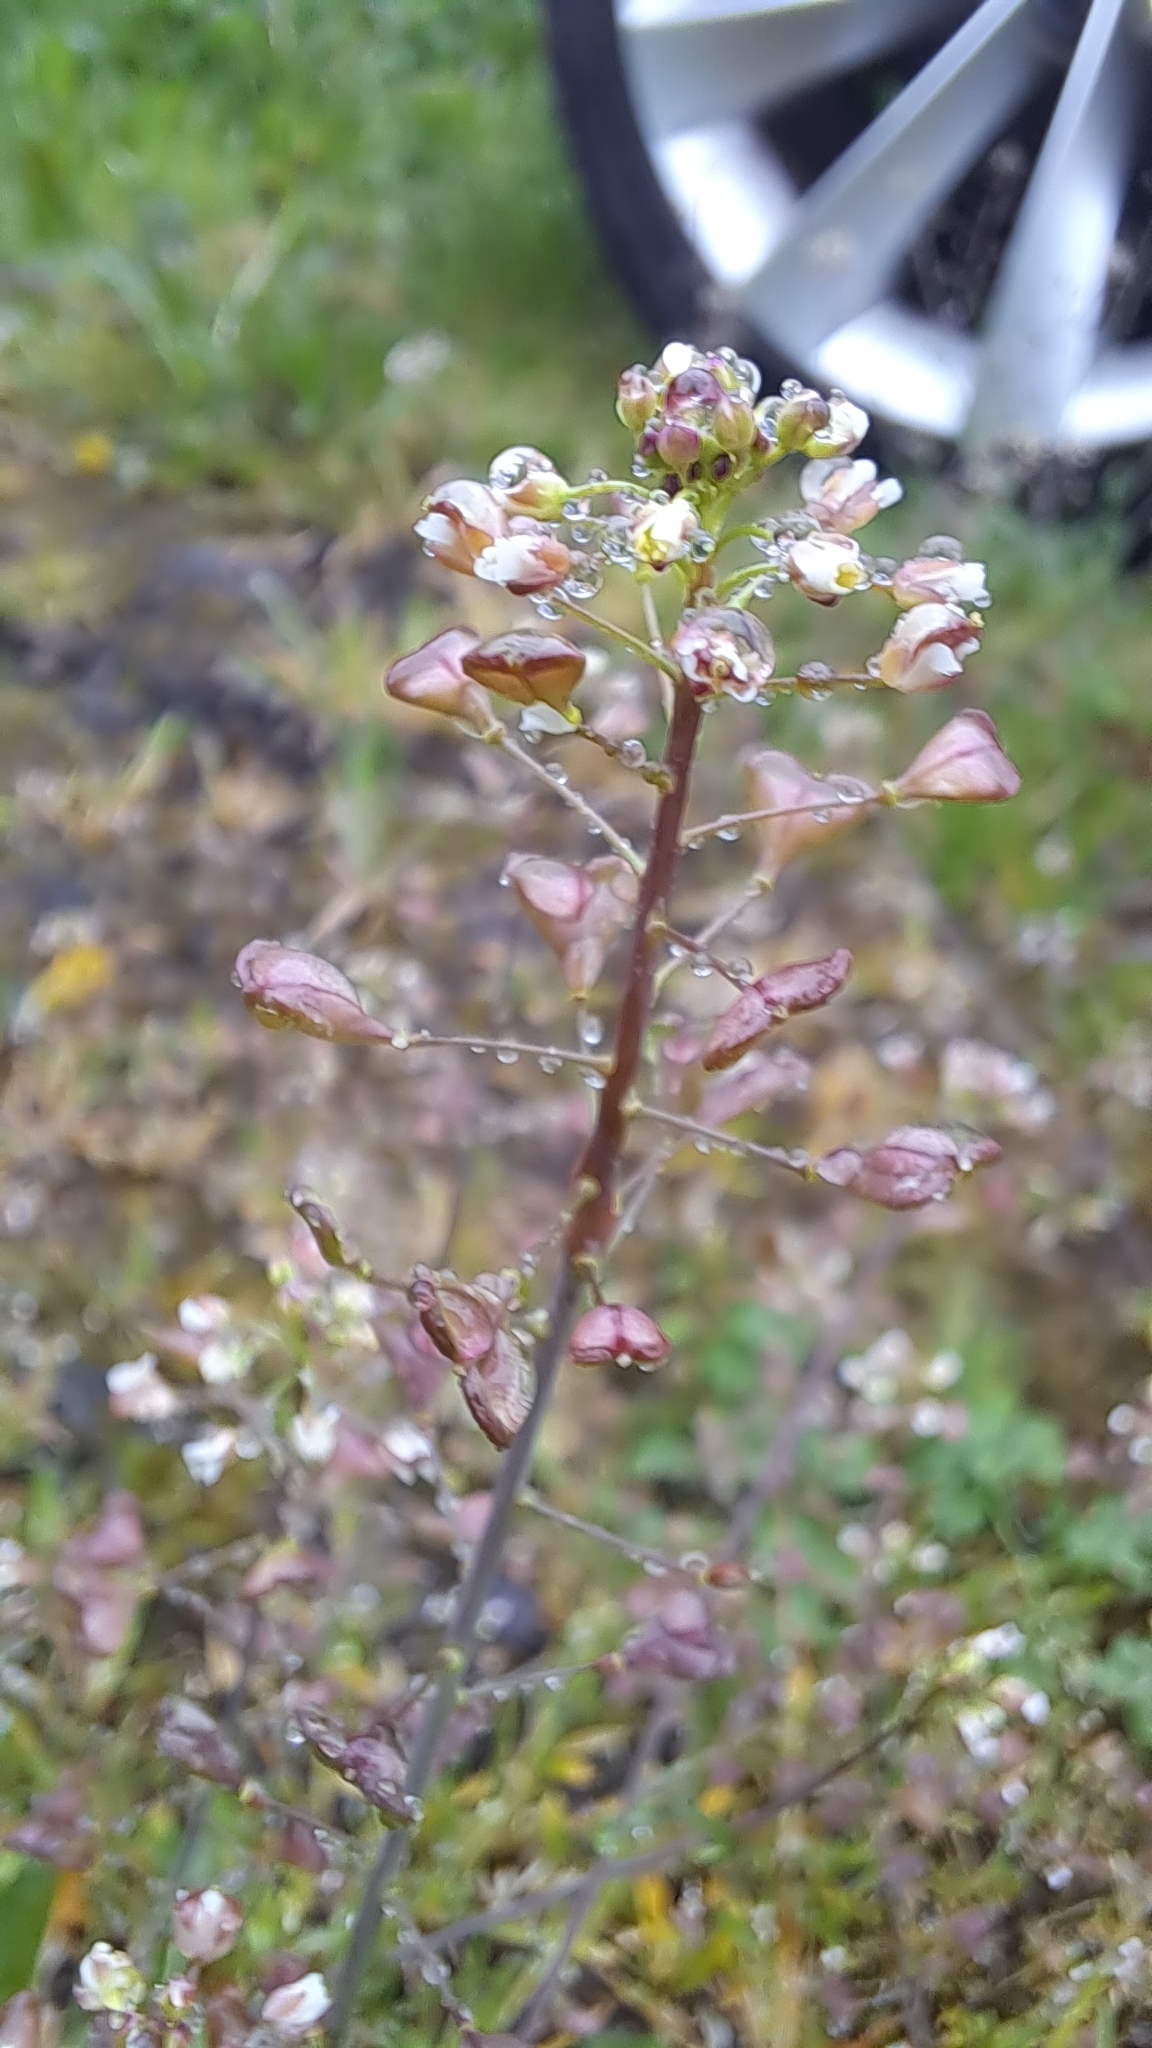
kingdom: Plantae
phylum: Tracheophyta
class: Magnoliopsida
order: Brassicales
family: Brassicaceae
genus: Capsella
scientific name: Capsella bursa-pastoris
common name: Shepherd's purse
